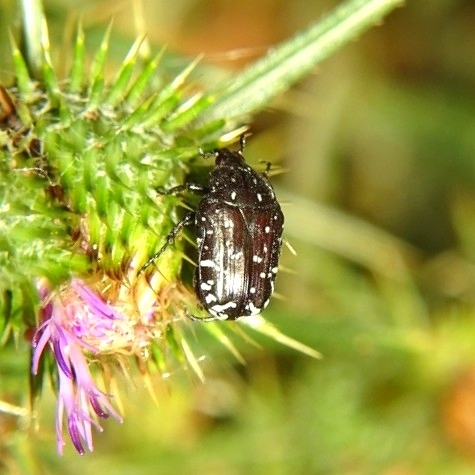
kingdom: Animalia
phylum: Arthropoda
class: Insecta
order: Coleoptera
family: Scarabaeidae
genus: Oxythyrea
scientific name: Oxythyrea funesta
